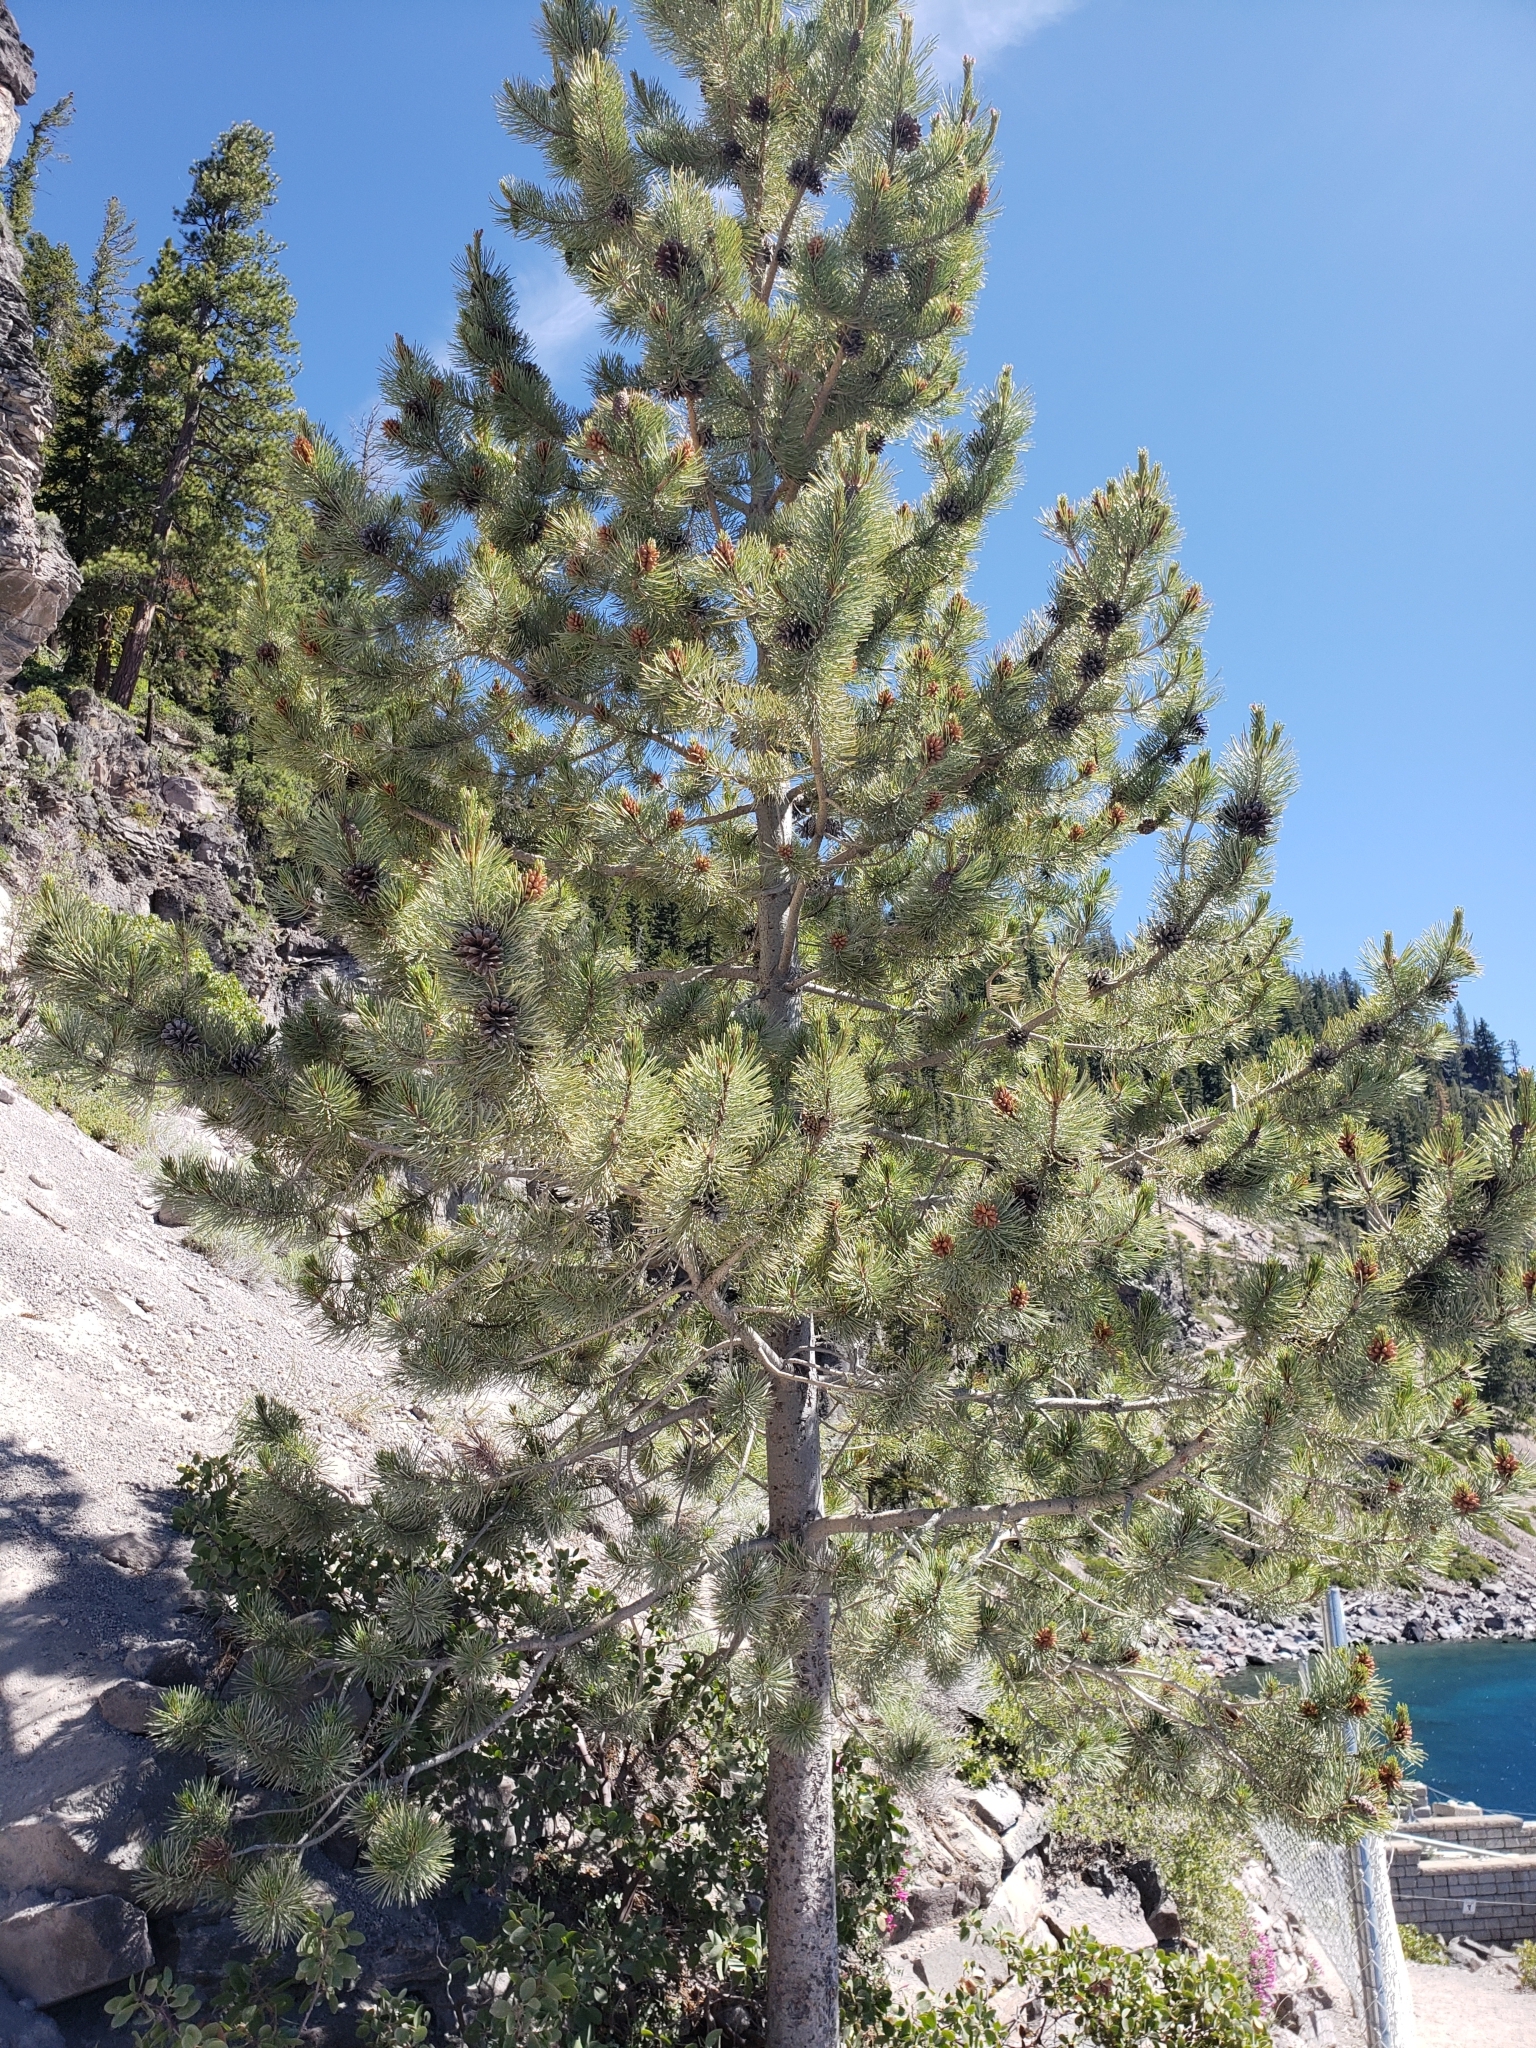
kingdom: Plantae
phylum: Tracheophyta
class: Pinopsida
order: Pinales
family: Pinaceae
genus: Pinus
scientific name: Pinus contorta
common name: Lodgepole pine
